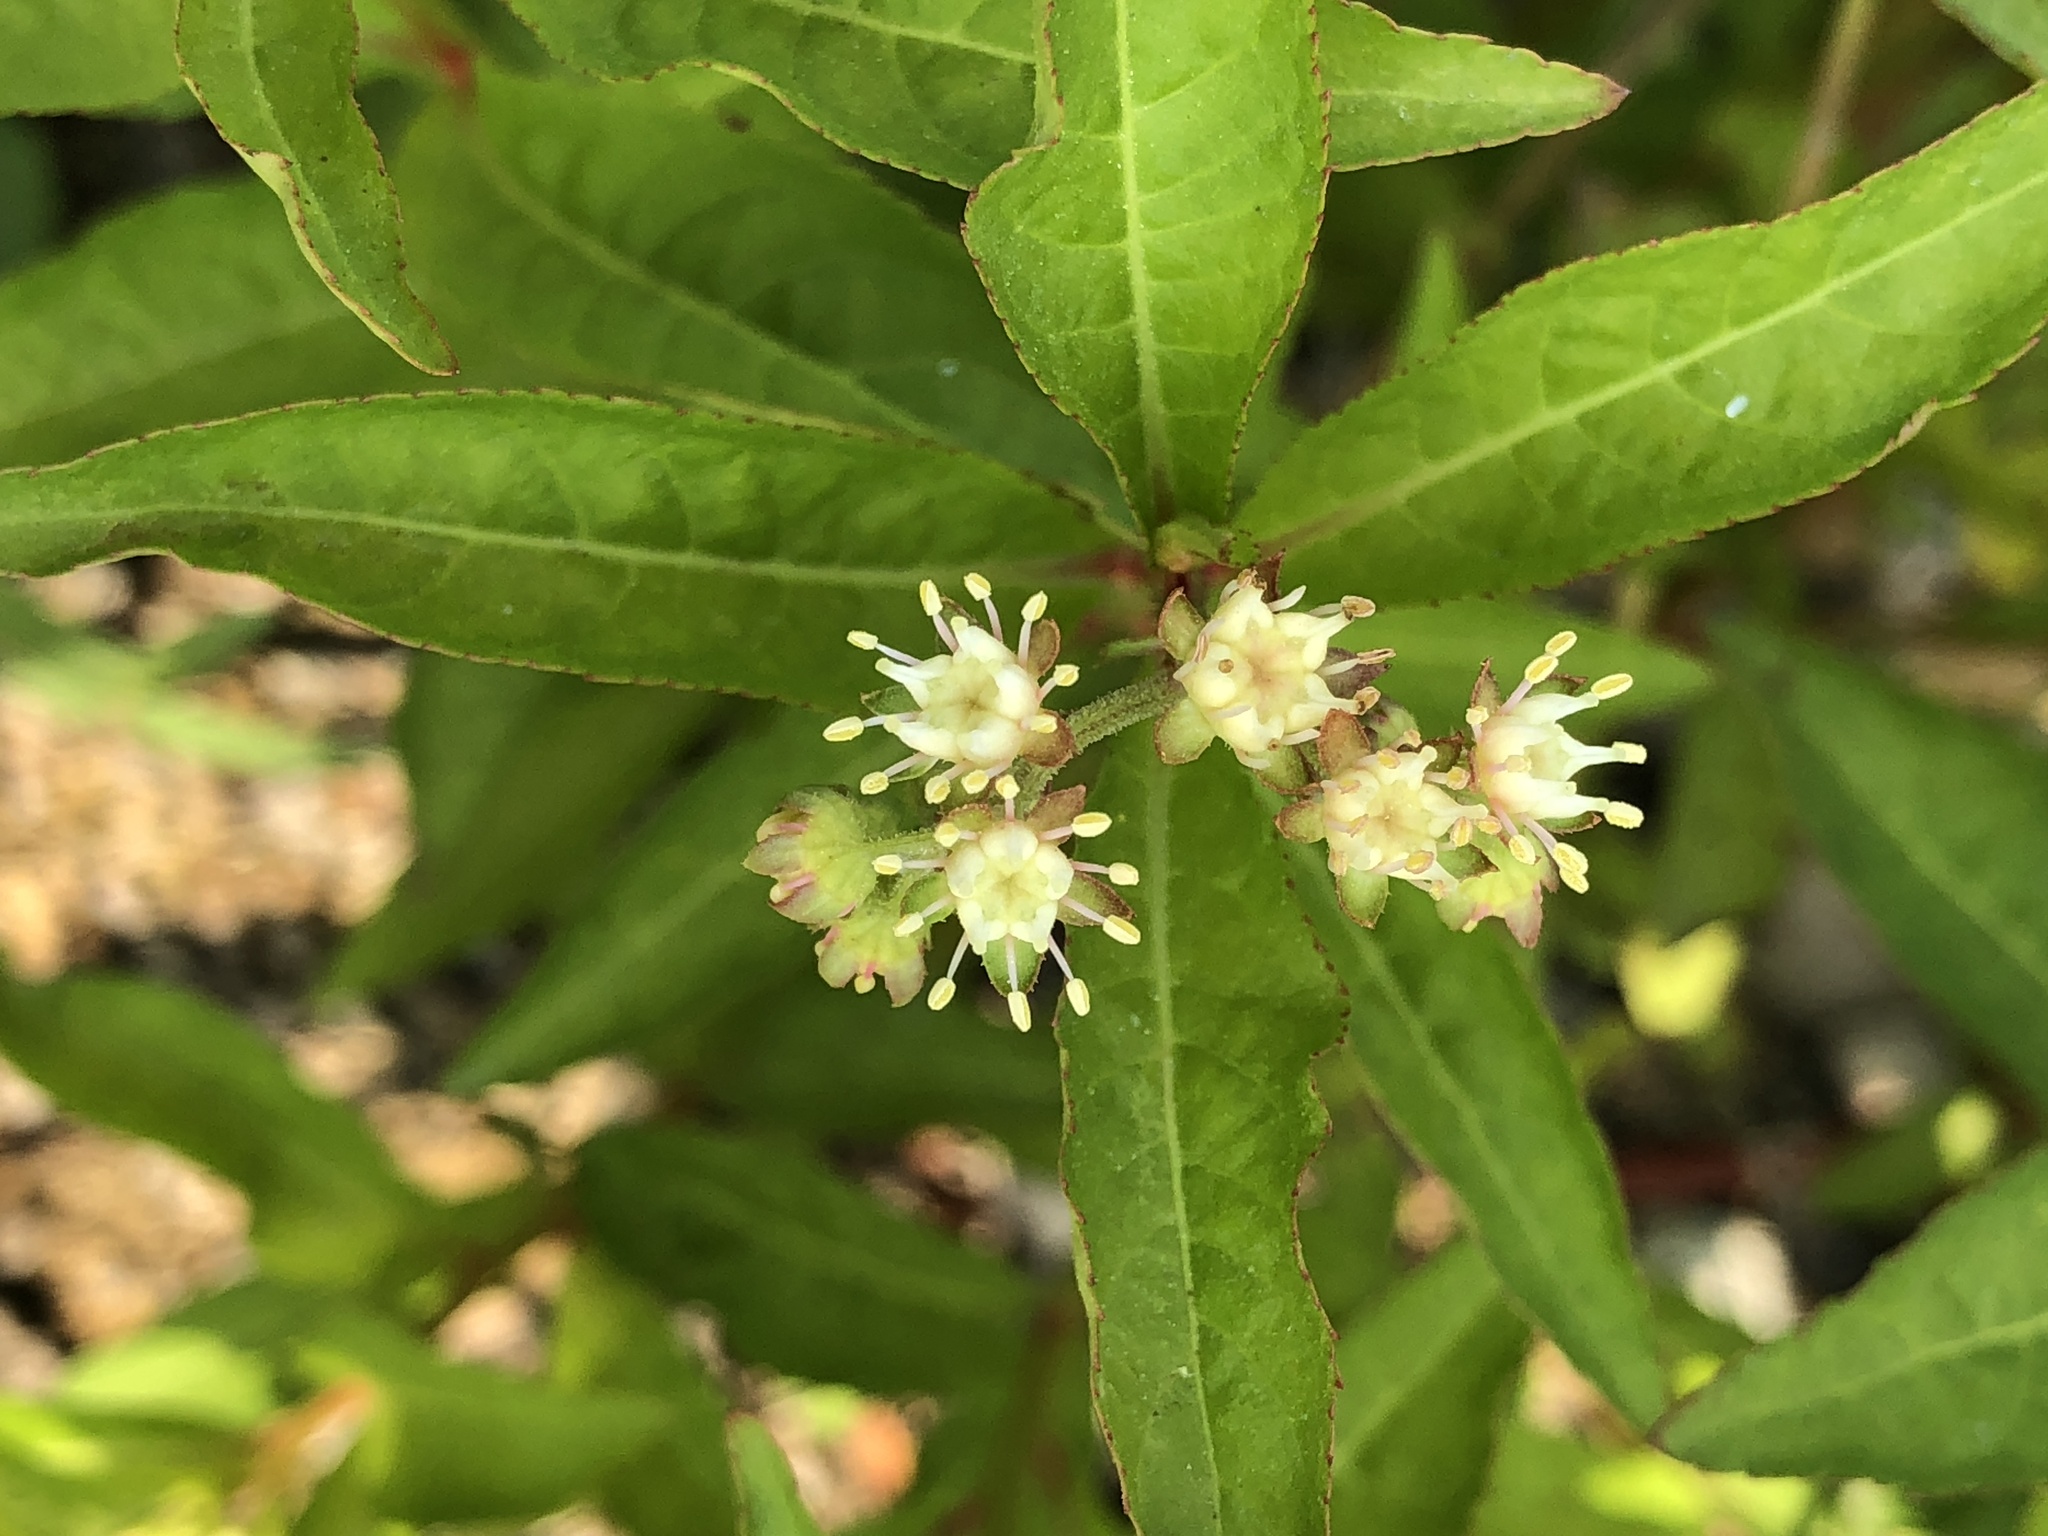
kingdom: Plantae
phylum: Tracheophyta
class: Magnoliopsida
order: Saxifragales
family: Penthoraceae
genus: Penthorum
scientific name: Penthorum sedoides
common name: Ditch stonecrop
